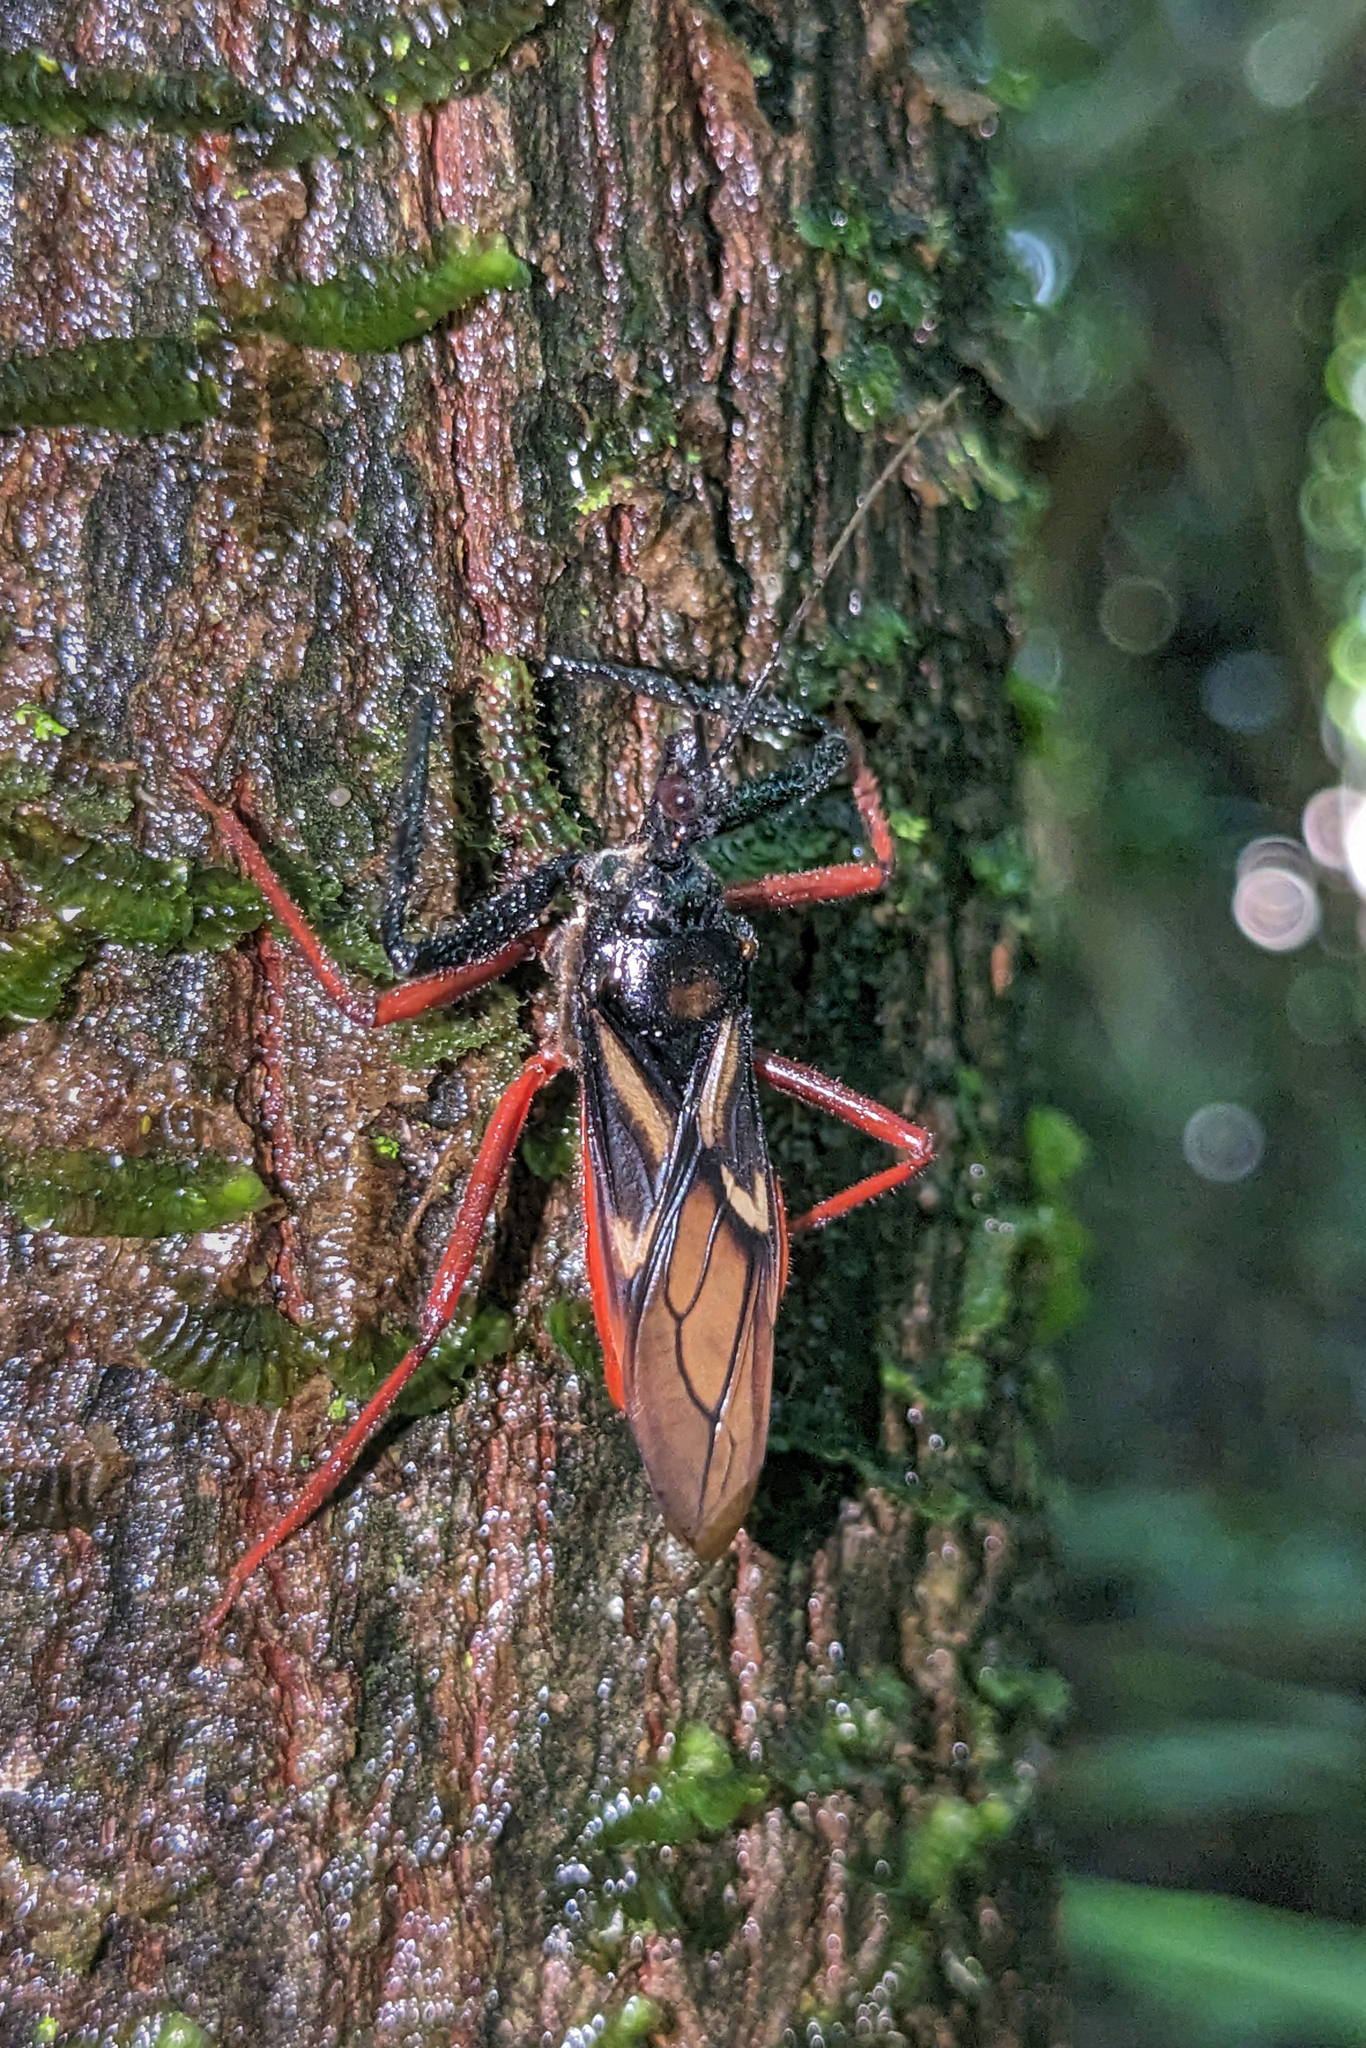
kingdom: Animalia
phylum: Arthropoda
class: Insecta
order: Hemiptera
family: Reduviidae
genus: Manicocoris
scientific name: Manicocoris rufipes
